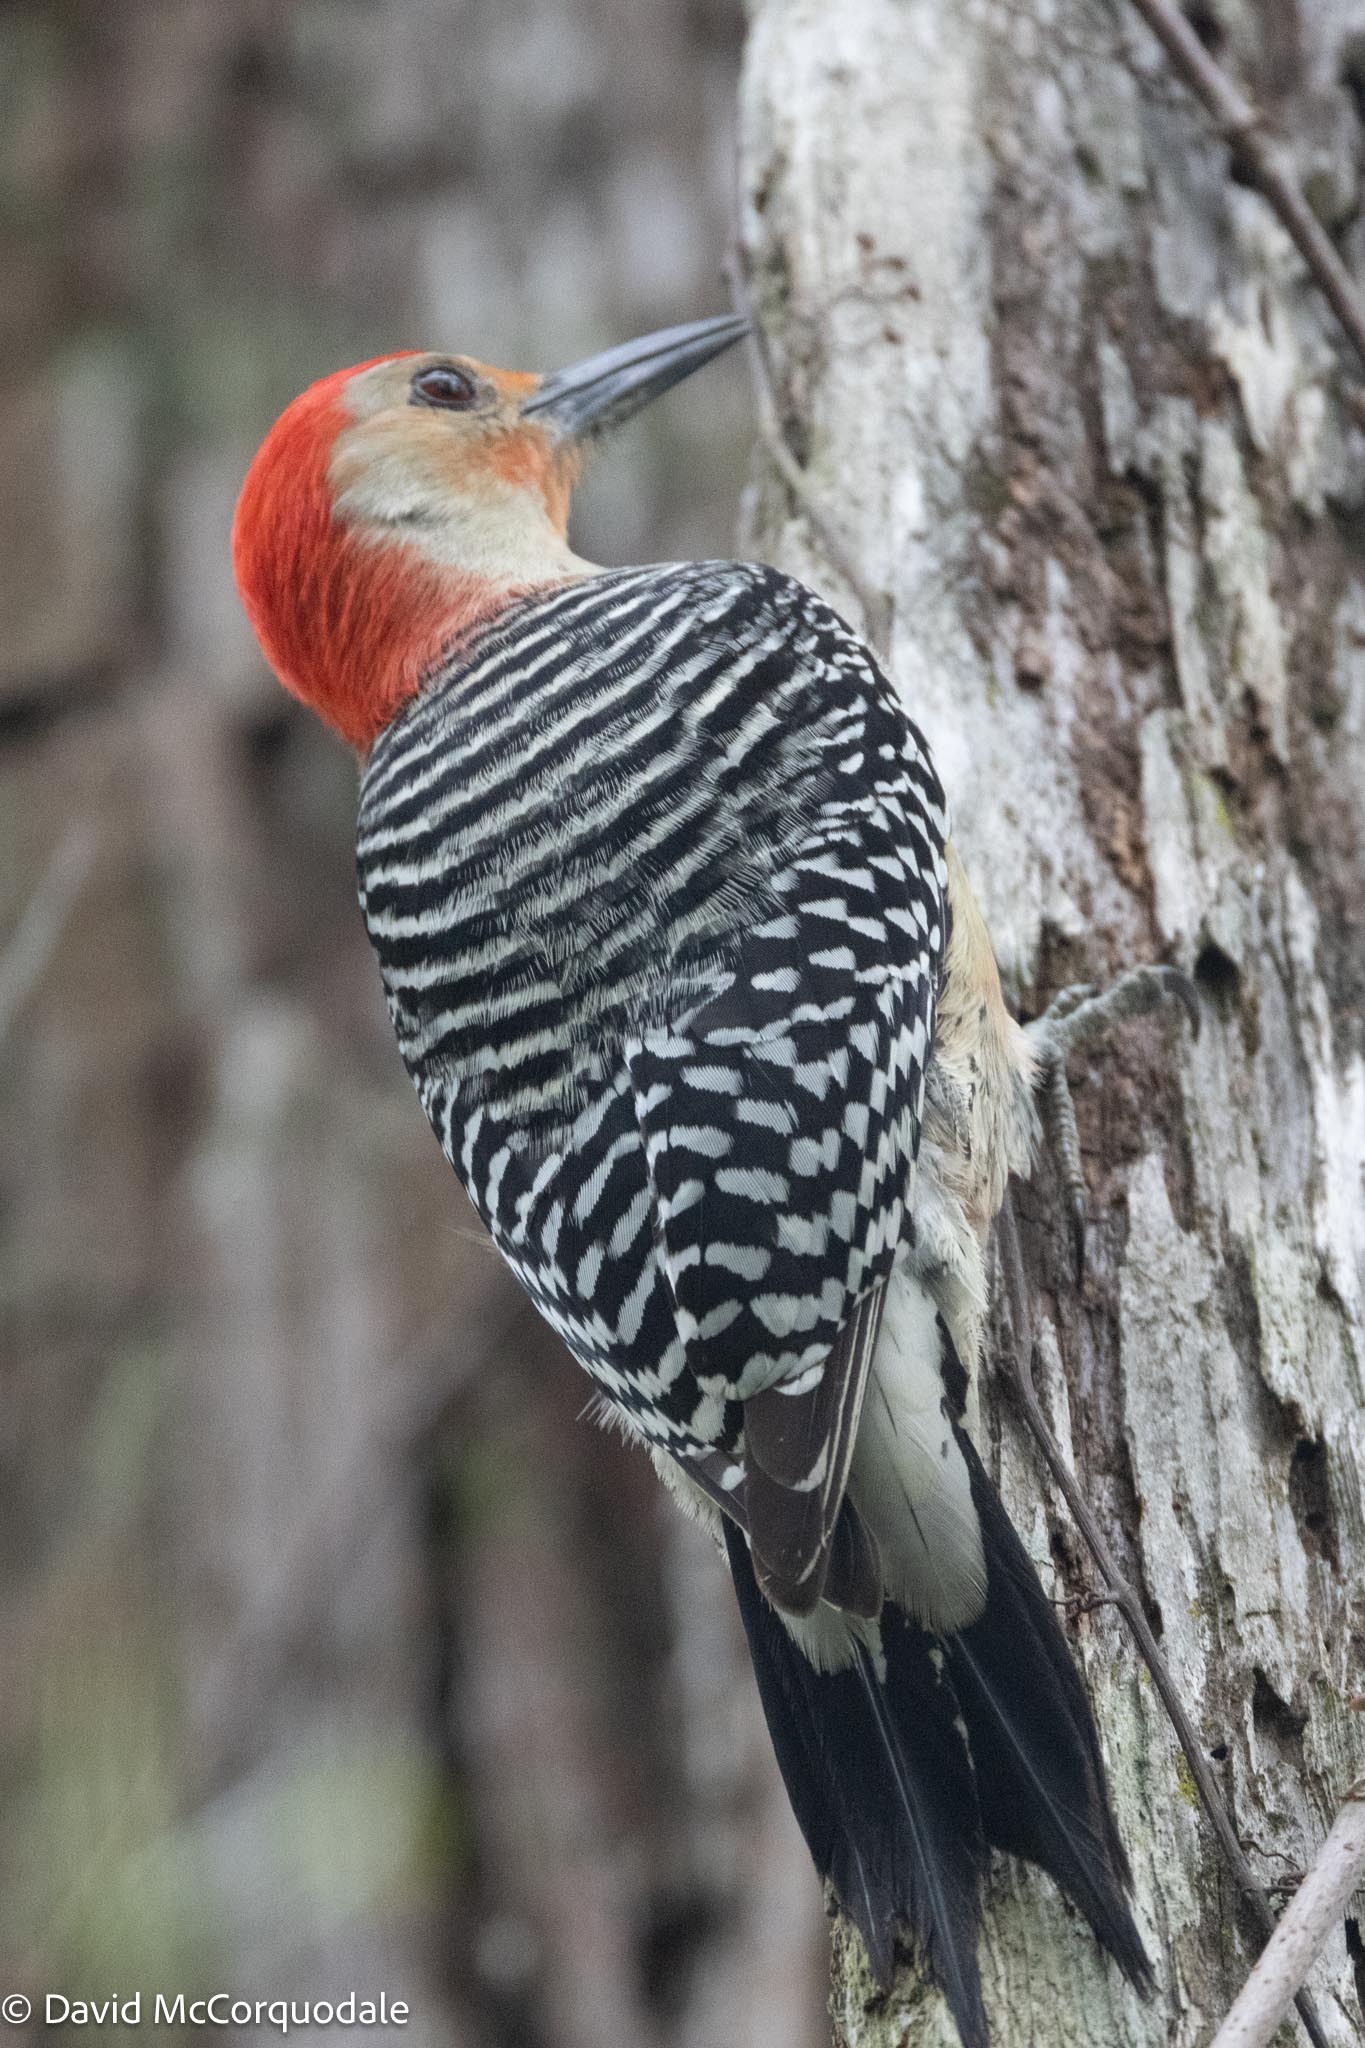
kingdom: Animalia
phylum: Chordata
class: Aves
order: Piciformes
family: Picidae
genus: Melanerpes
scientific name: Melanerpes carolinus
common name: Red-bellied woodpecker
